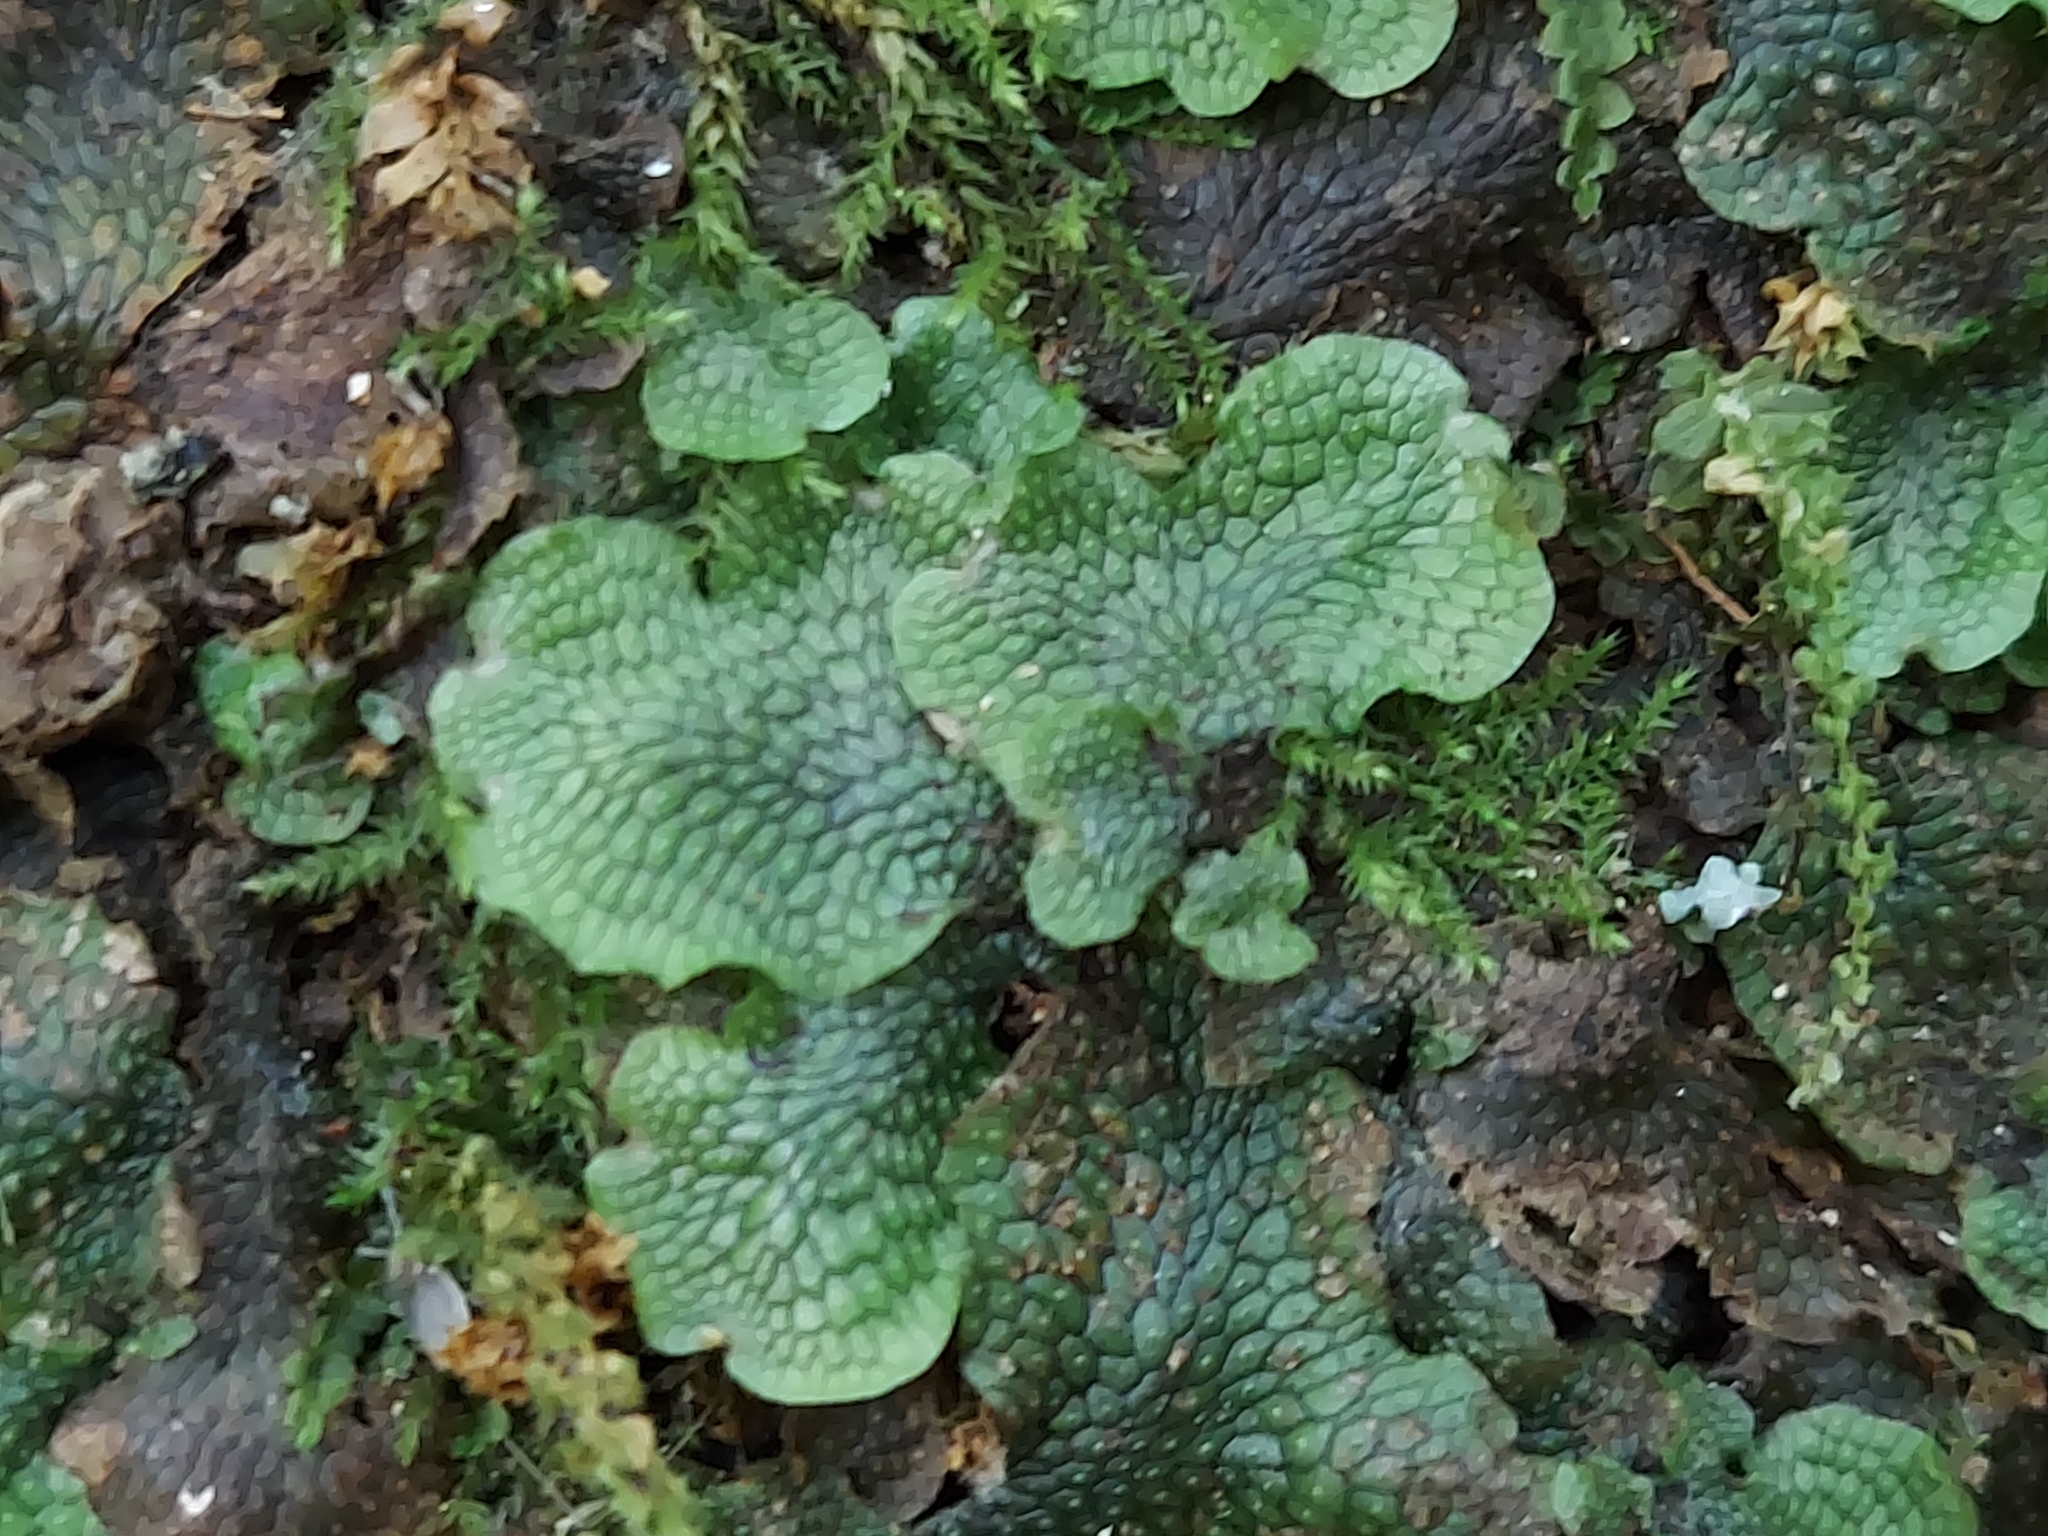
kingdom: Plantae
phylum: Marchantiophyta
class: Marchantiopsida
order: Marchantiales
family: Conocephalaceae
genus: Conocephalum
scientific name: Conocephalum salebrosum
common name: Cat-tongue liverwort
